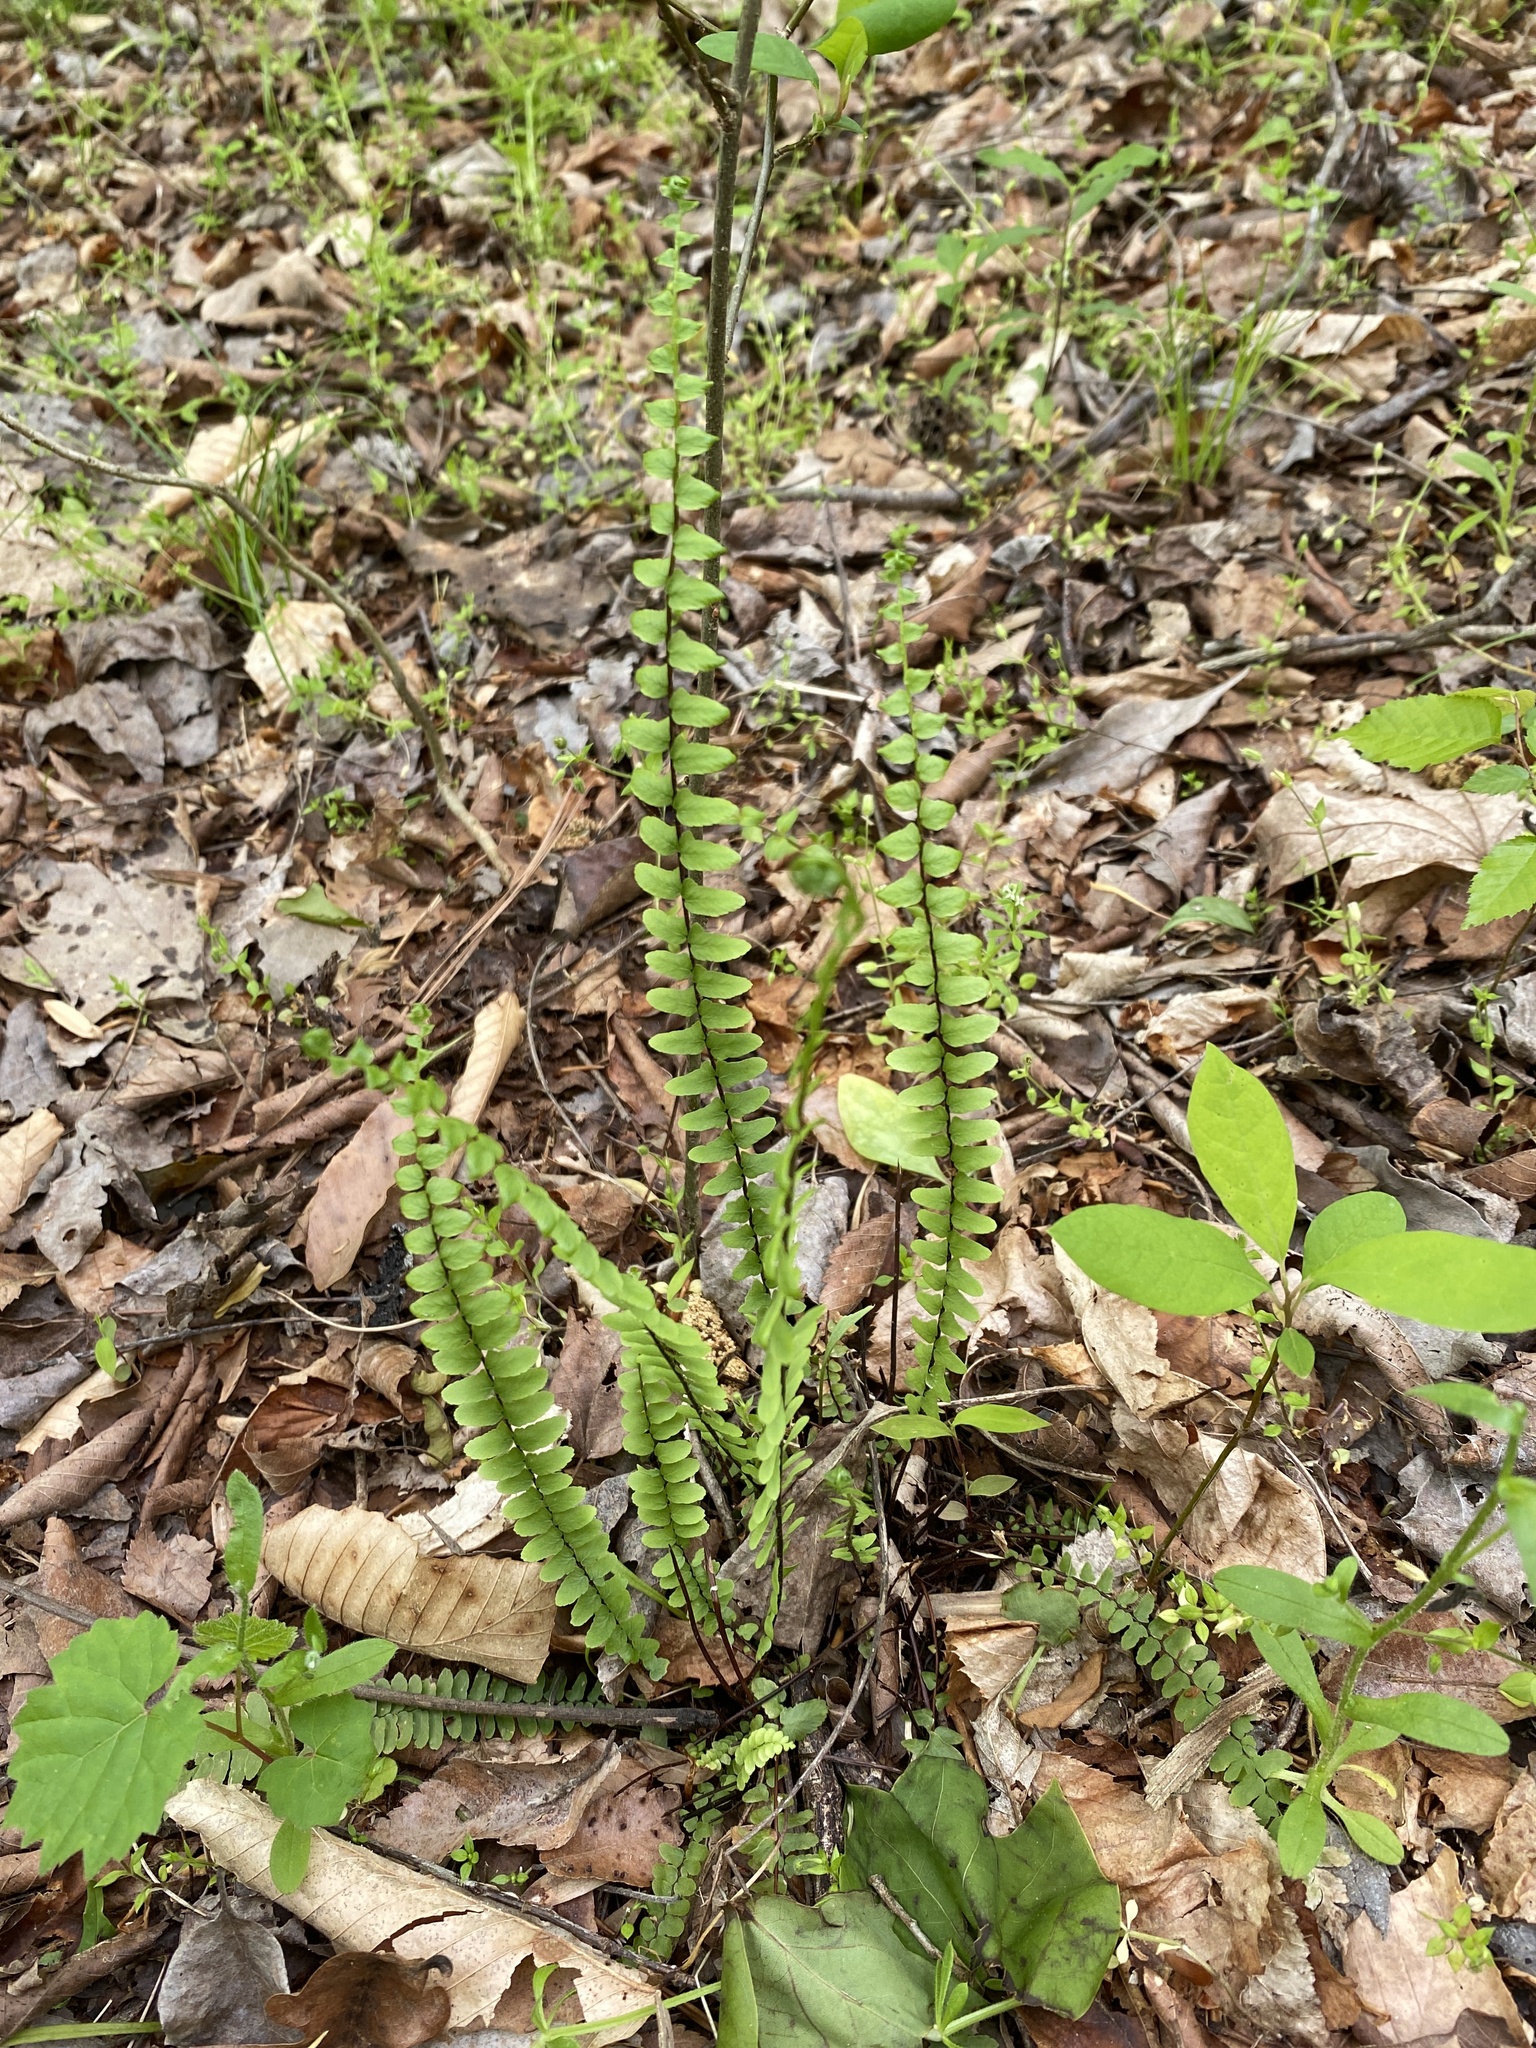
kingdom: Plantae
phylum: Tracheophyta
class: Polypodiopsida
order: Polypodiales
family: Aspleniaceae
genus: Asplenium
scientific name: Asplenium platyneuron
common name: Ebony spleenwort
